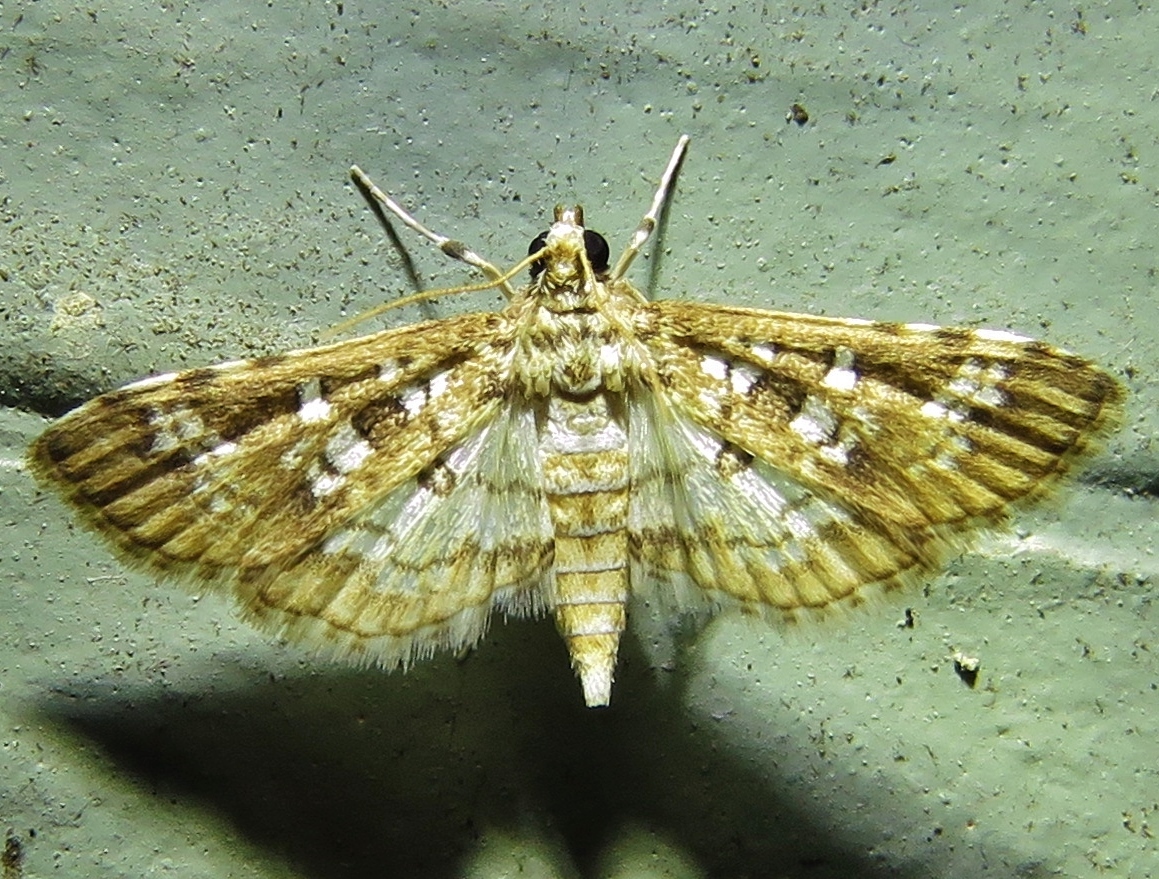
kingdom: Animalia
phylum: Arthropoda
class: Insecta
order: Lepidoptera
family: Crambidae
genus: Samea
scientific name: Samea multiplicalis
